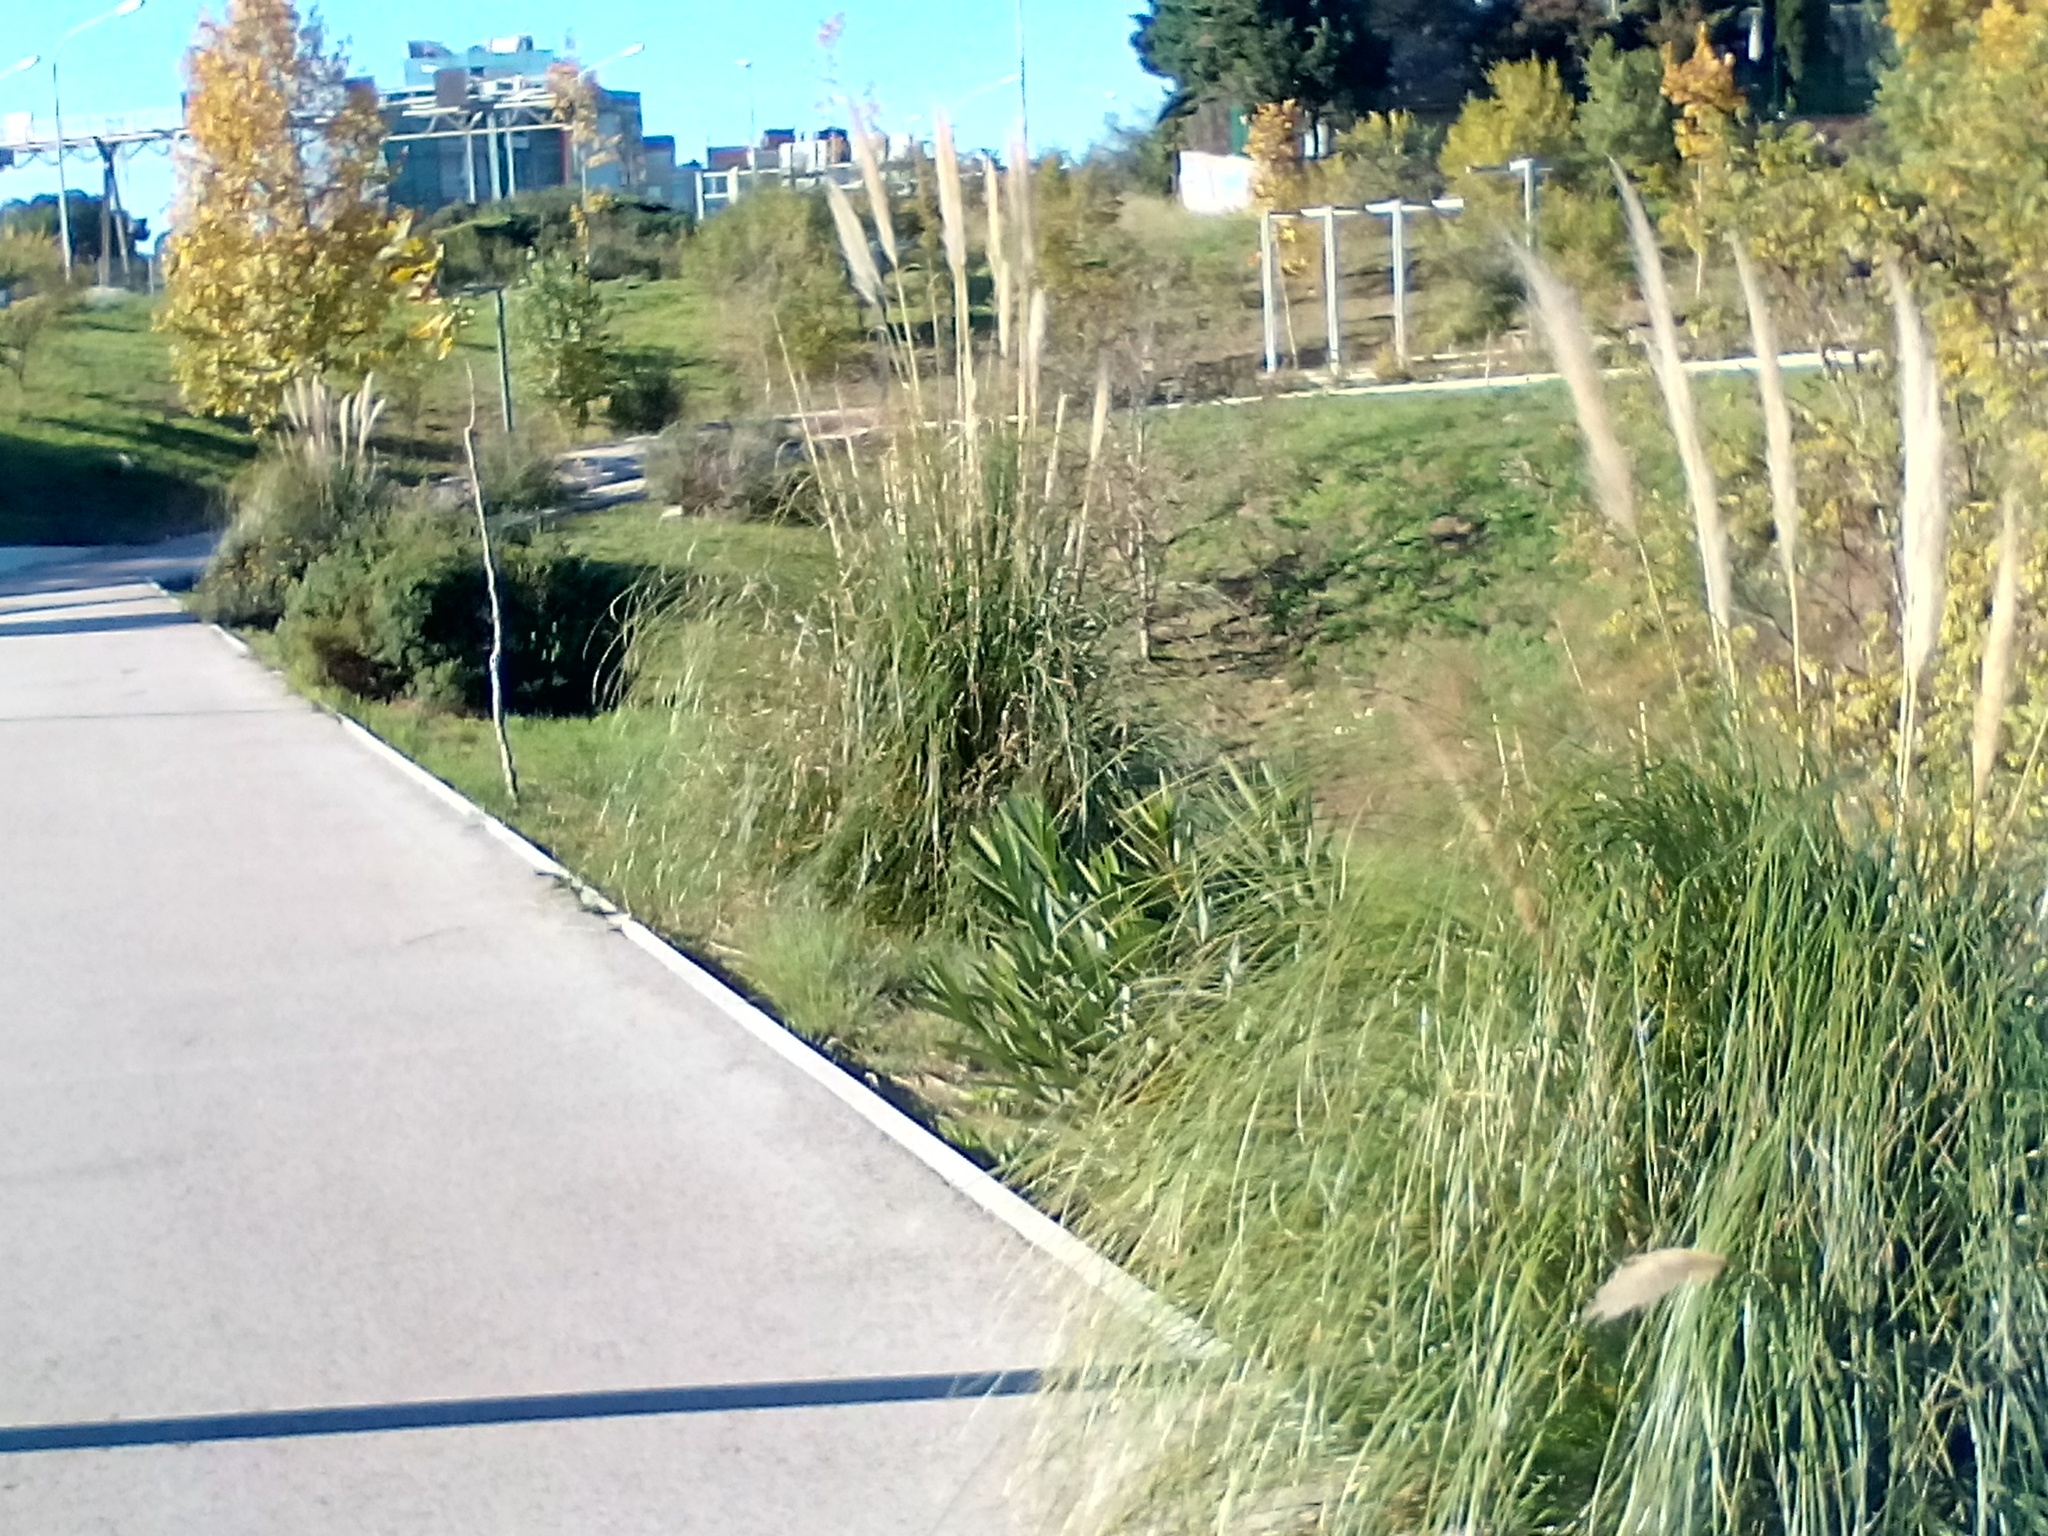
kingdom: Plantae
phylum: Tracheophyta
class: Liliopsida
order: Poales
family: Poaceae
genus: Cortaderia
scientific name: Cortaderia selloana
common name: Uruguayan pampas grass
